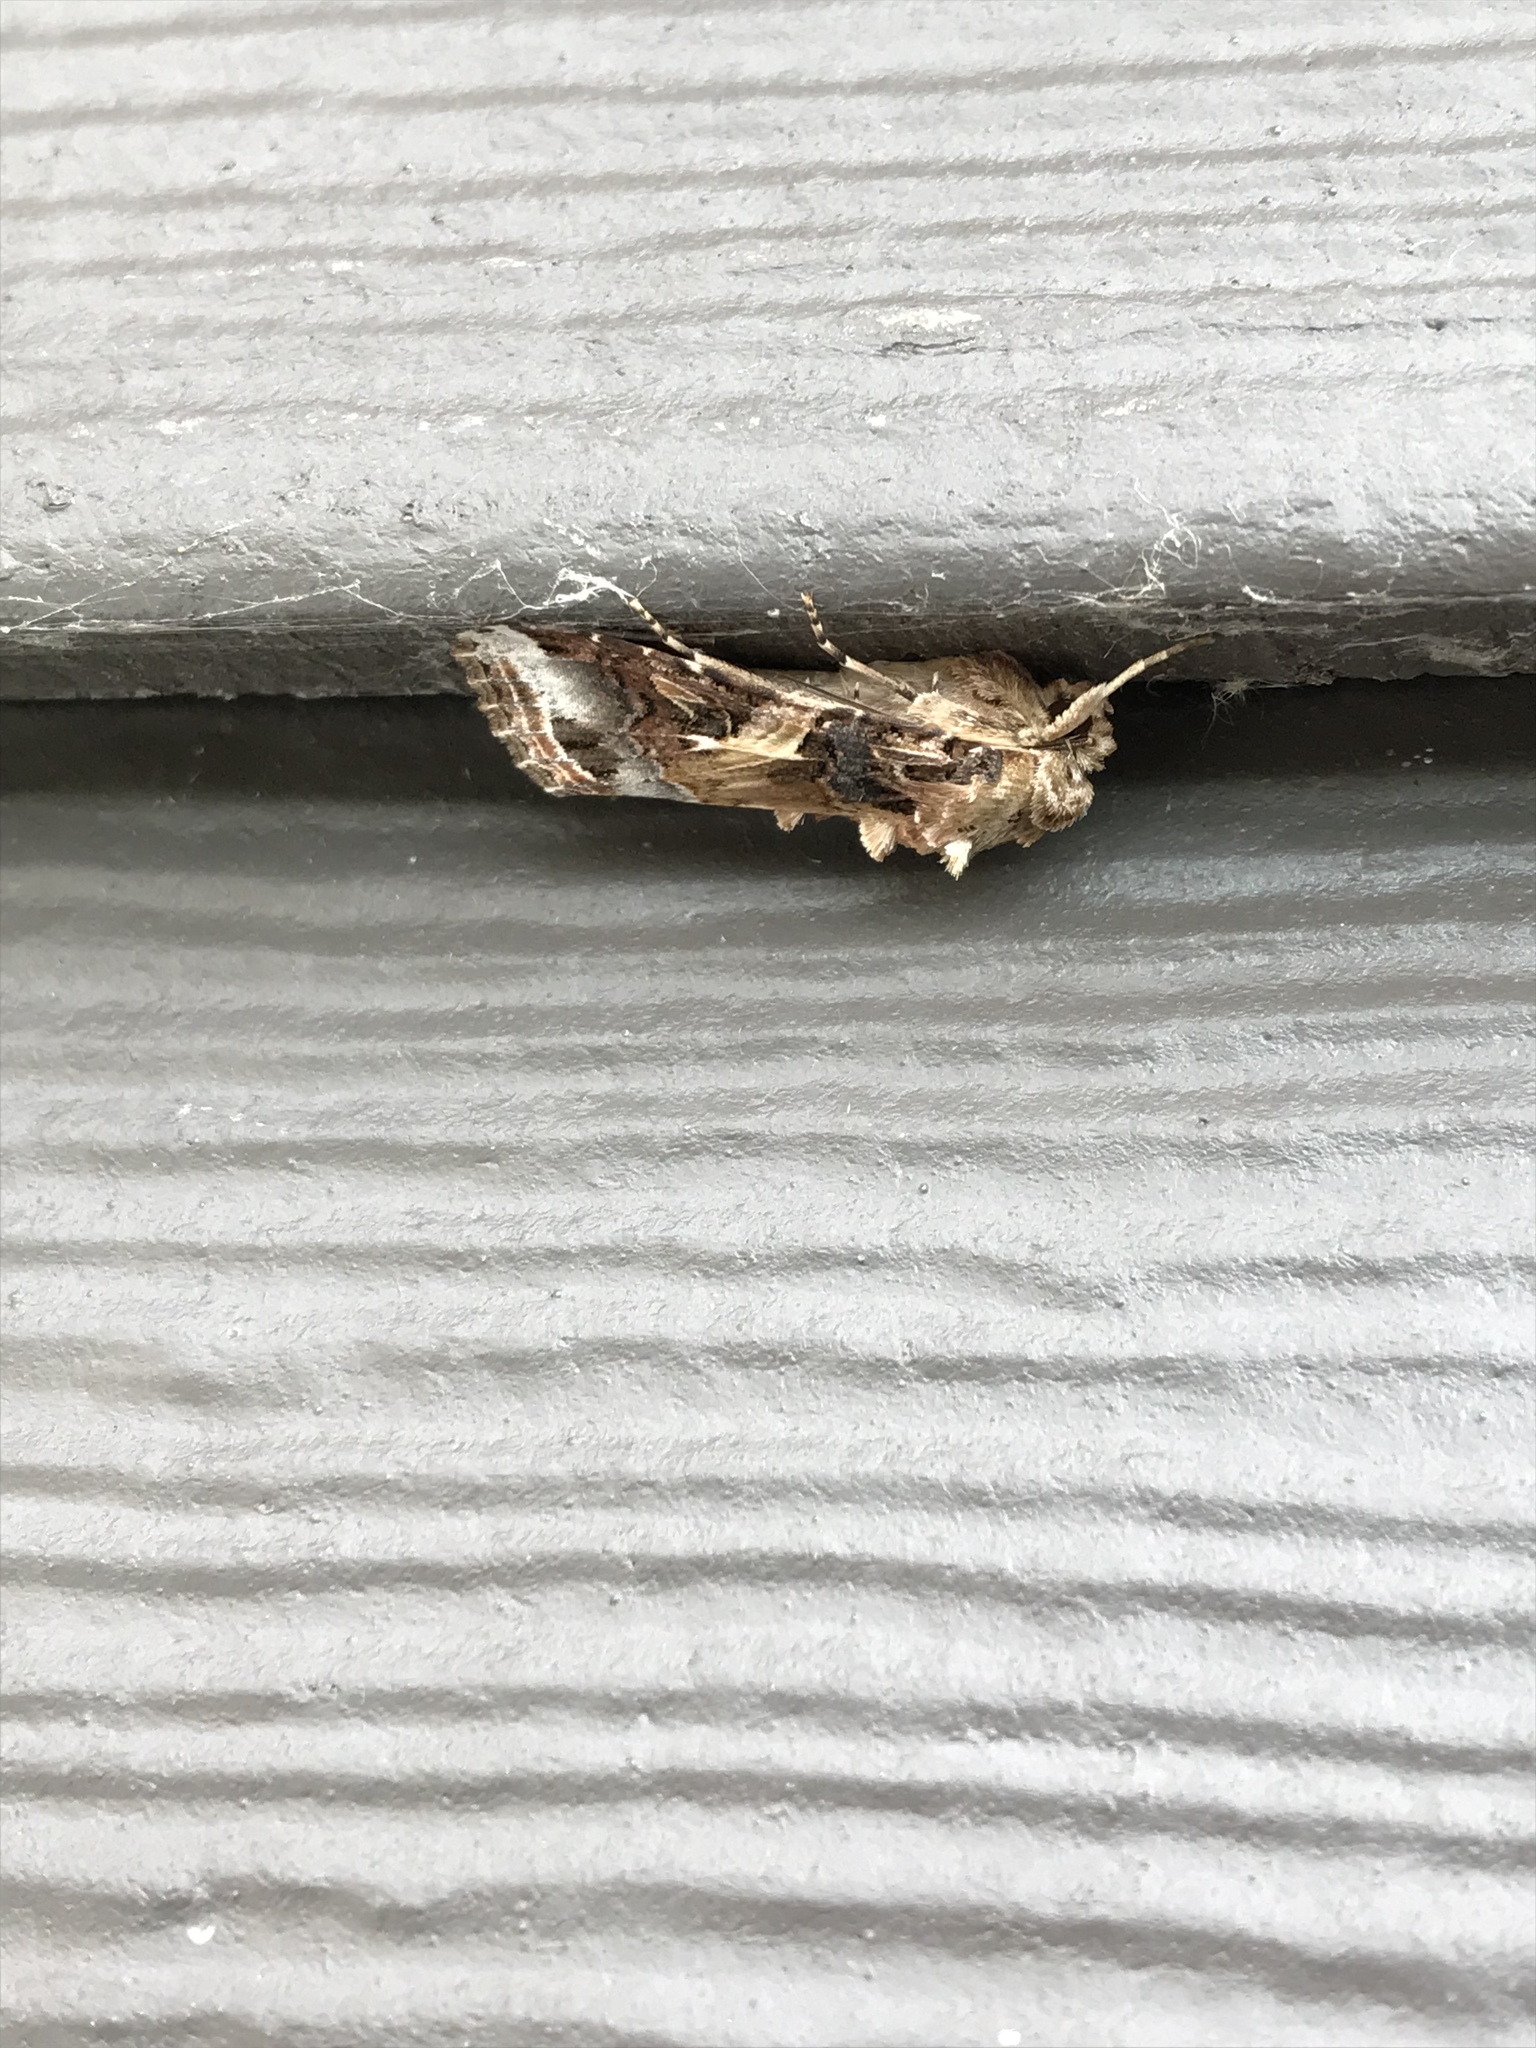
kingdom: Animalia
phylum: Arthropoda
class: Insecta
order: Lepidoptera
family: Noctuidae
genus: Spodoptera
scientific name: Spodoptera ornithogalli
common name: Yellow-striped armyworm
